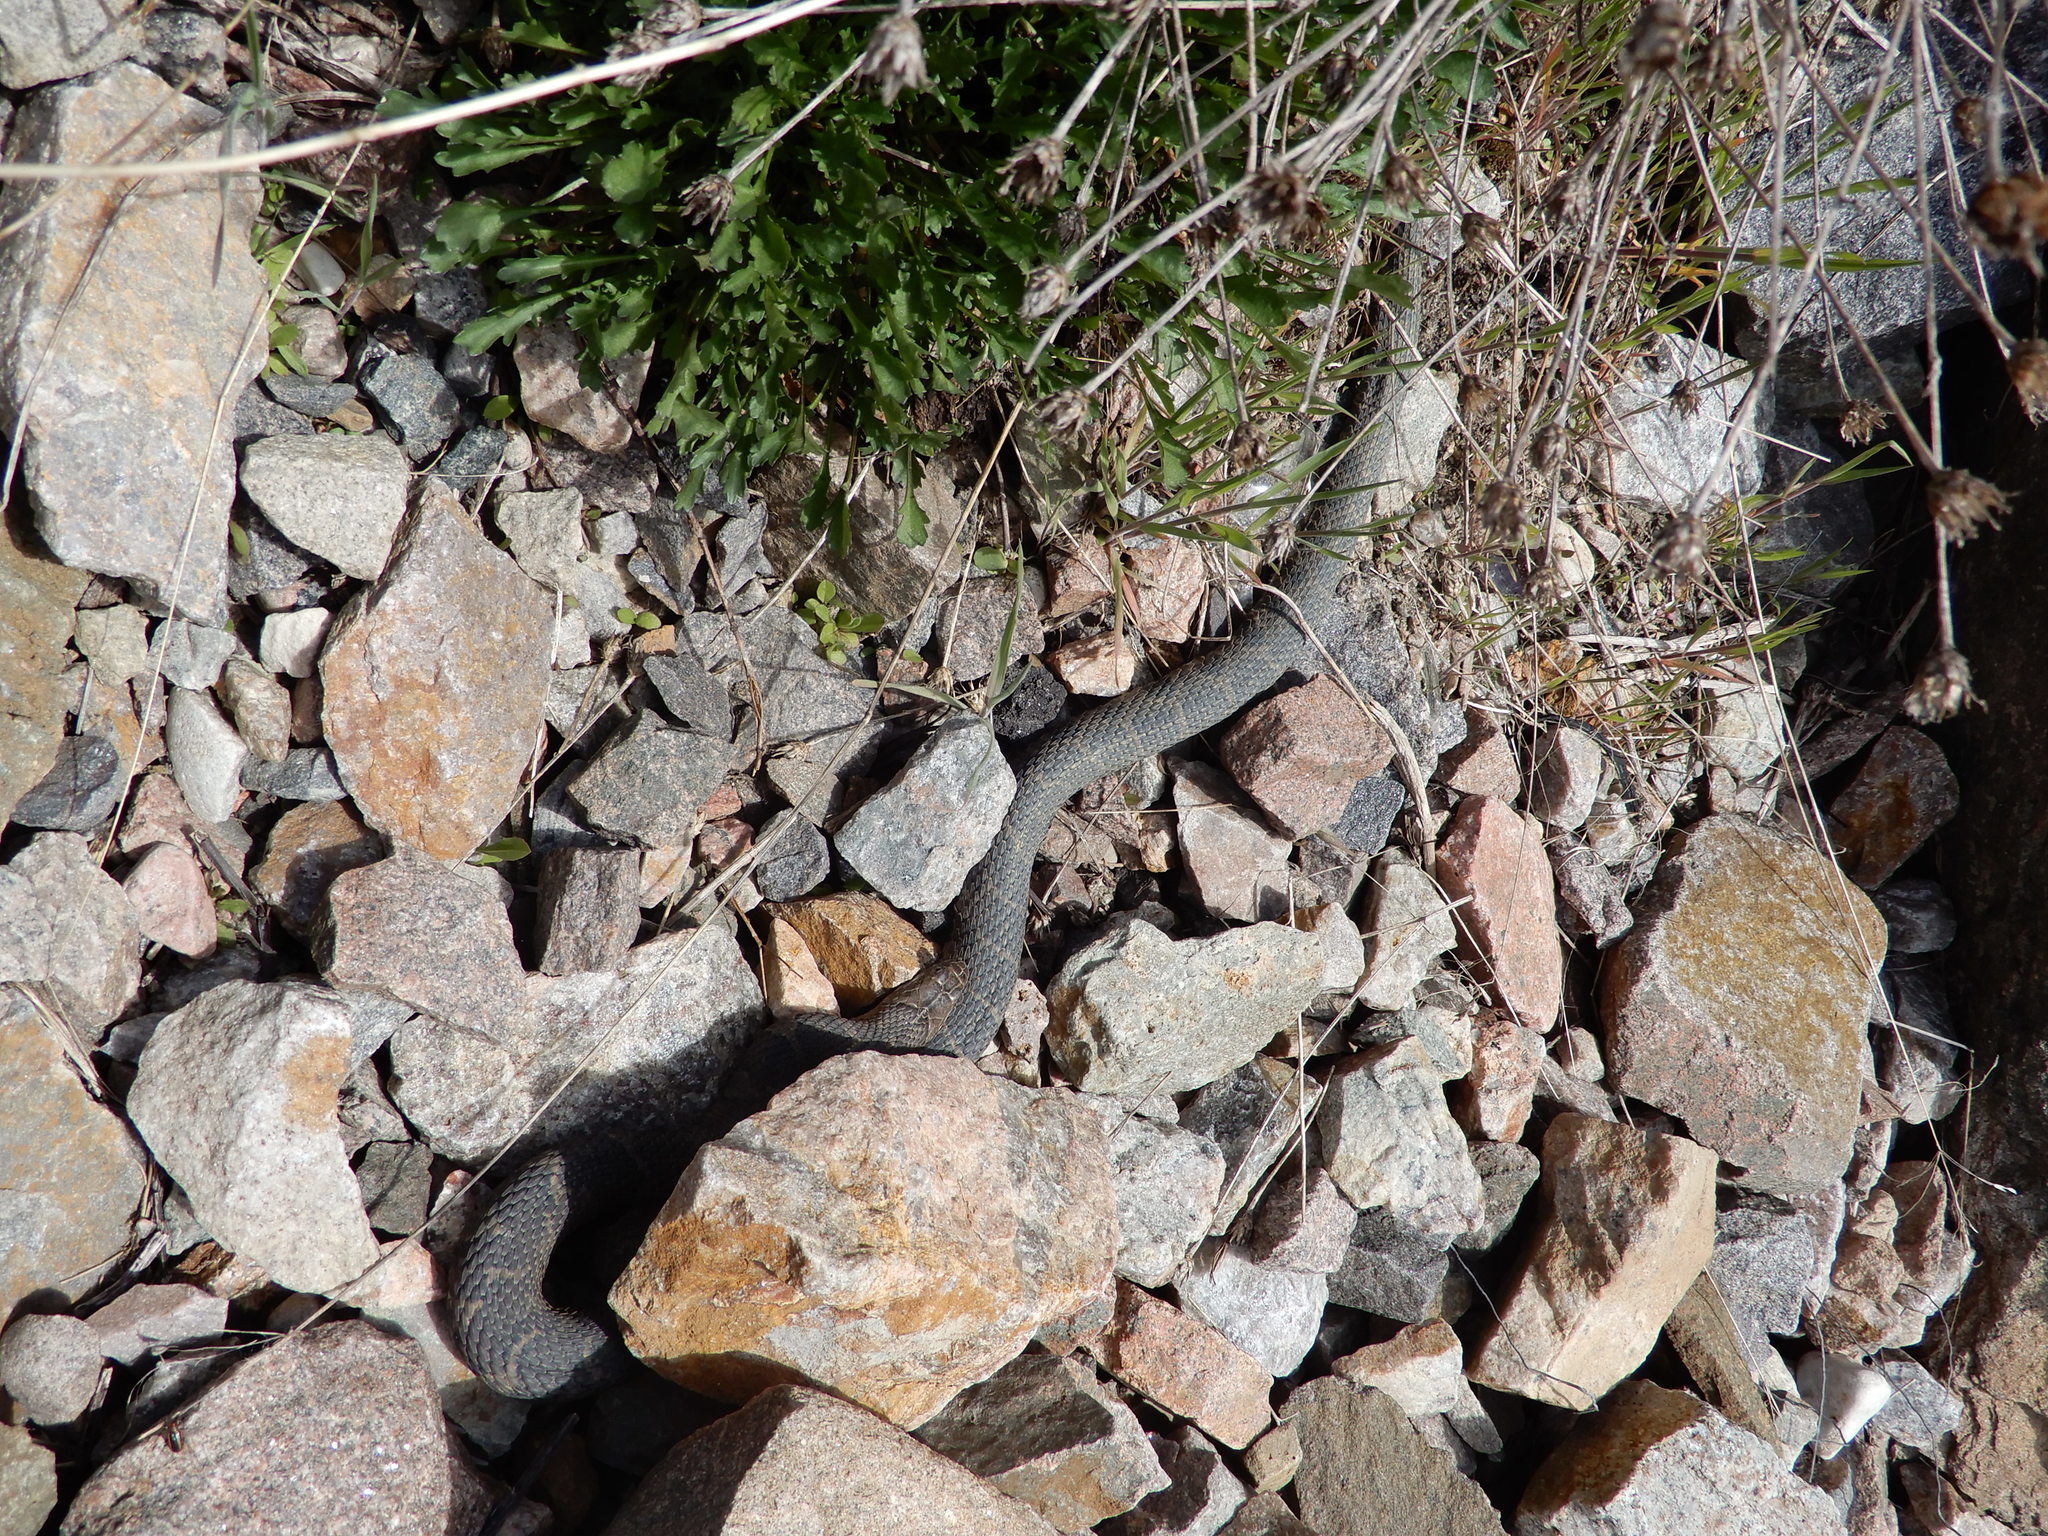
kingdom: Animalia
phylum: Chordata
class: Squamata
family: Colubridae
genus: Nerodia
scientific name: Nerodia sipedon
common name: Northern water snake
